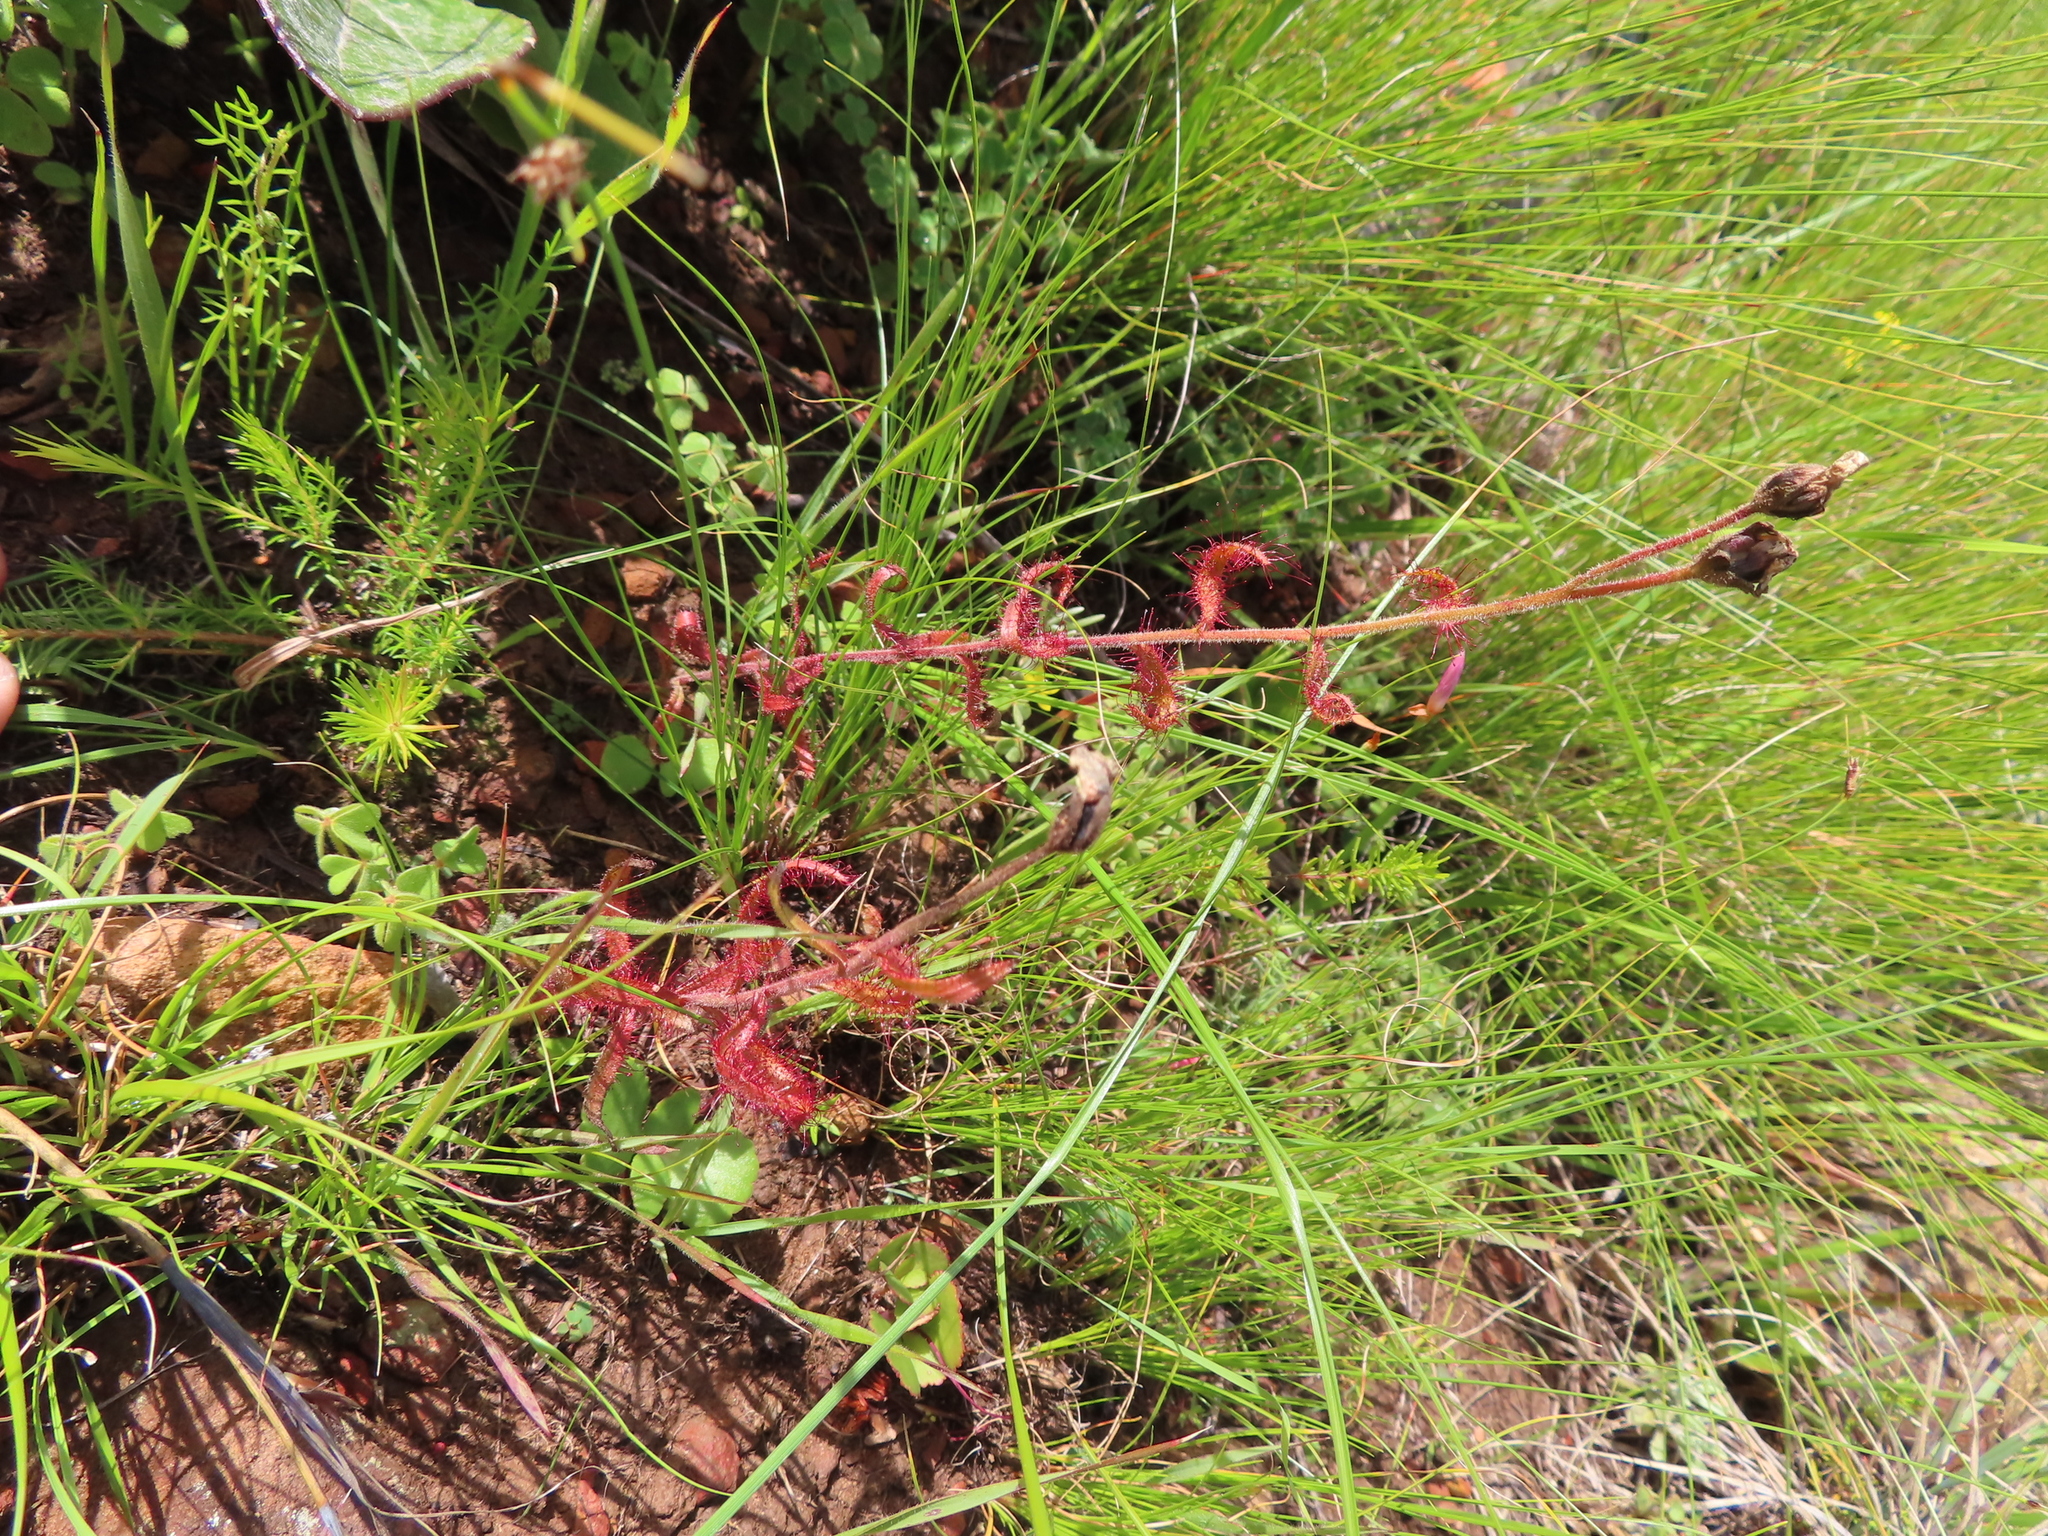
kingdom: Plantae
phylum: Tracheophyta
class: Magnoliopsida
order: Caryophyllales
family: Droseraceae
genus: Drosera
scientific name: Drosera cistiflora
